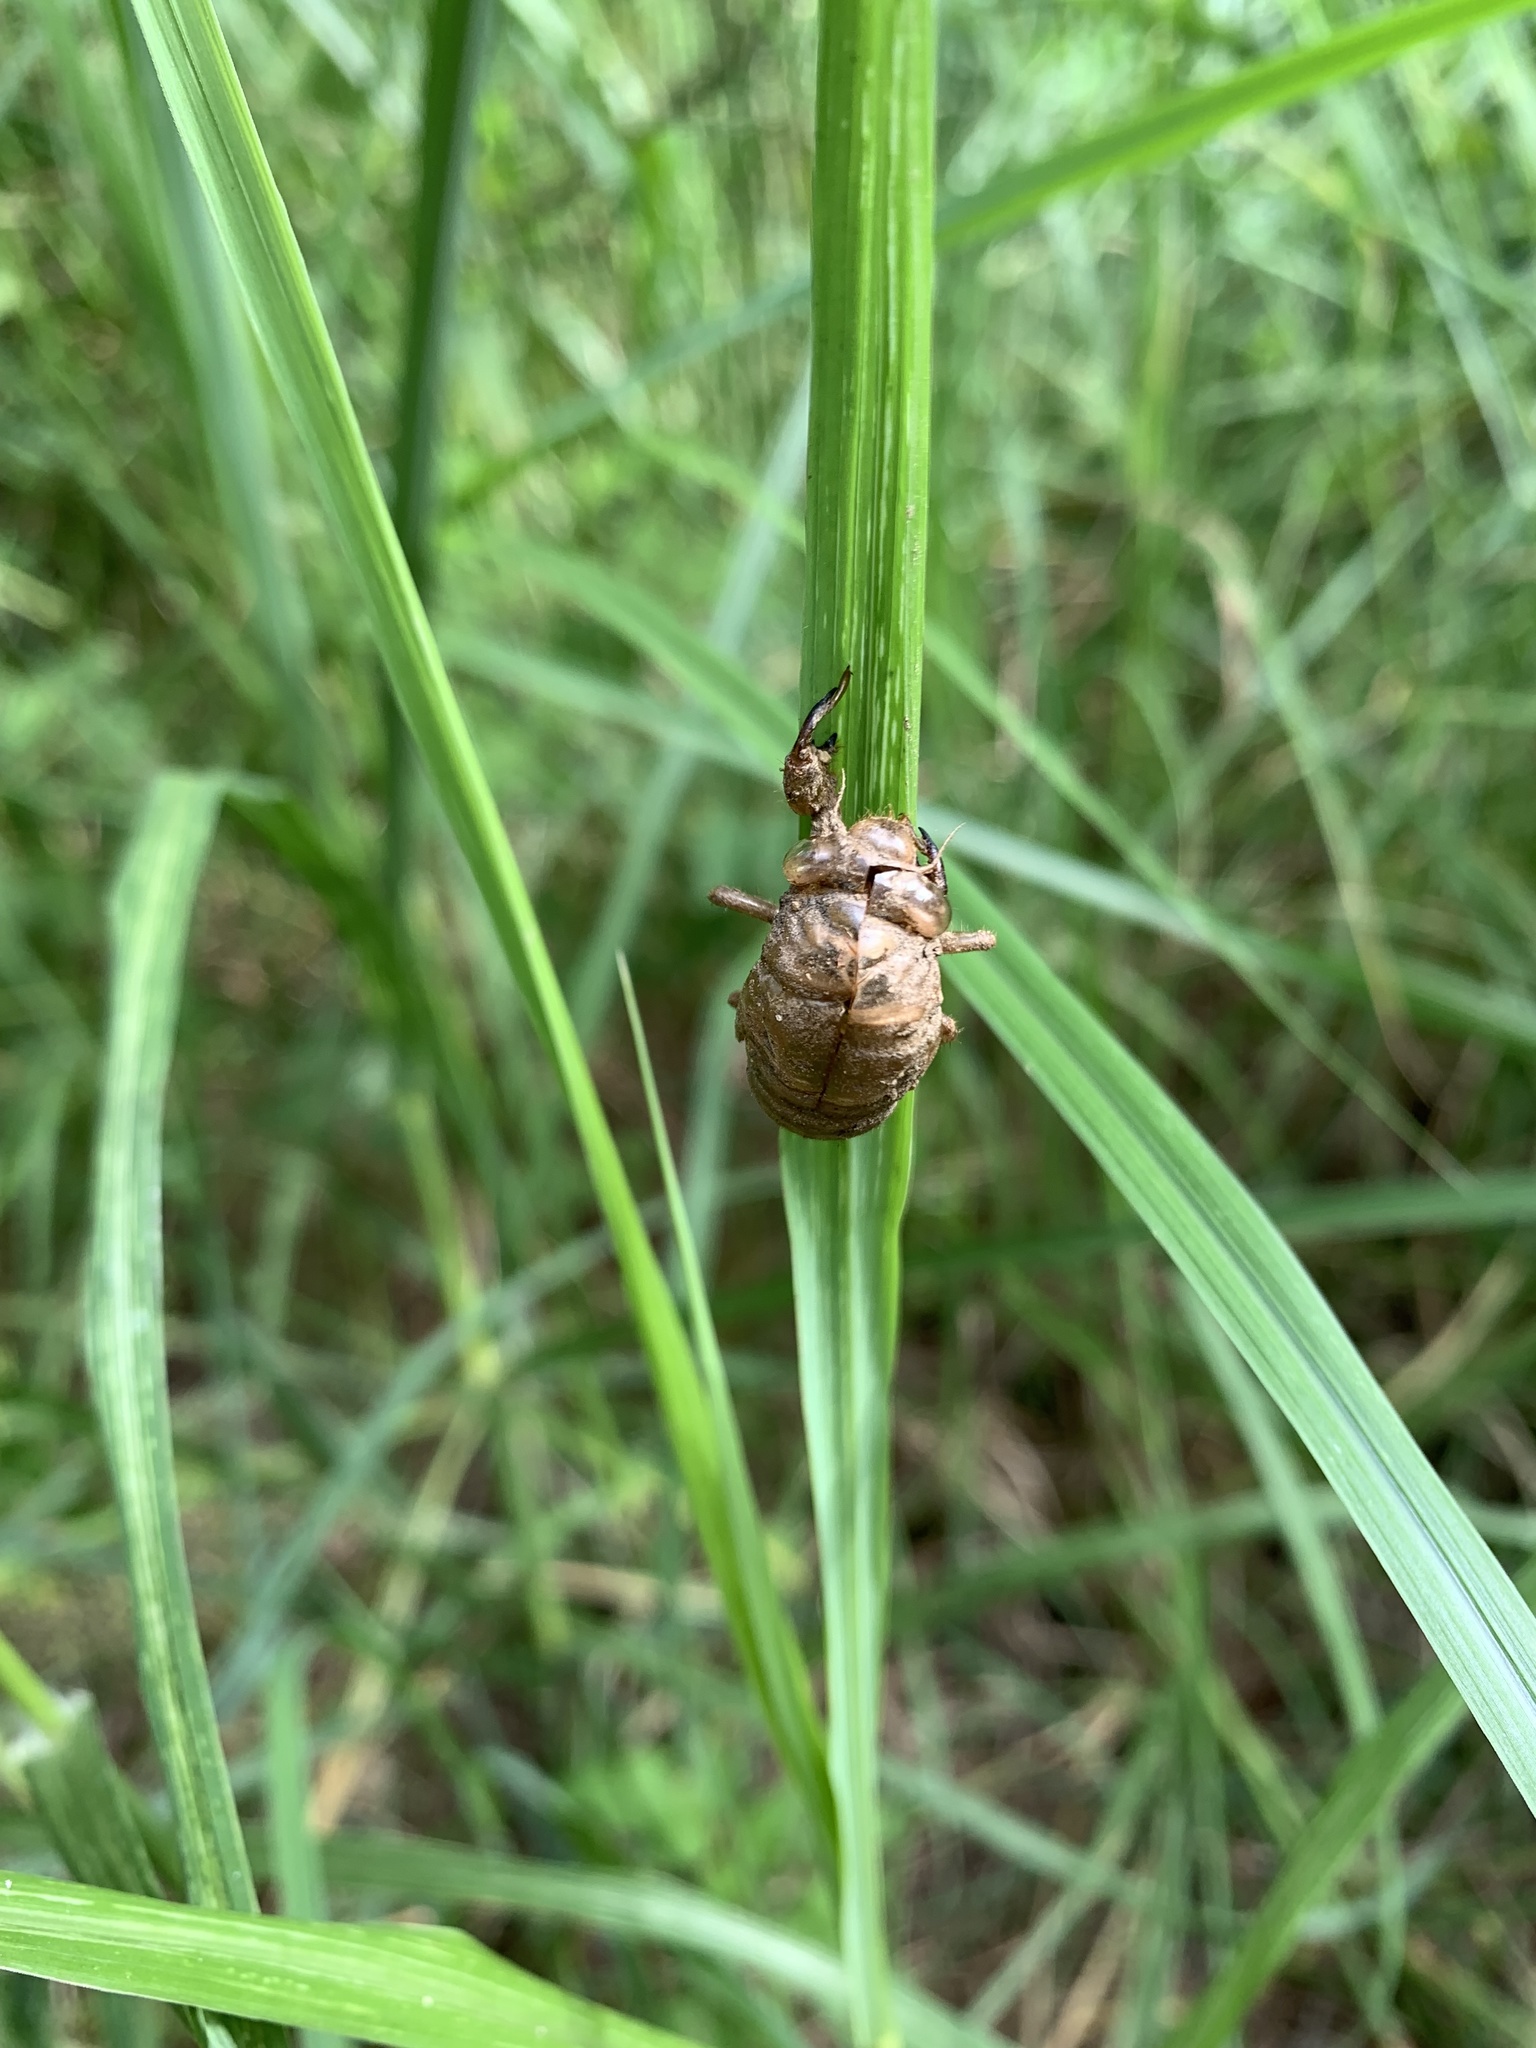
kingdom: Animalia
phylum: Arthropoda
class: Insecta
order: Hemiptera
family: Cicadidae
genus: Psaltoda
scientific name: Psaltoda claripennis
